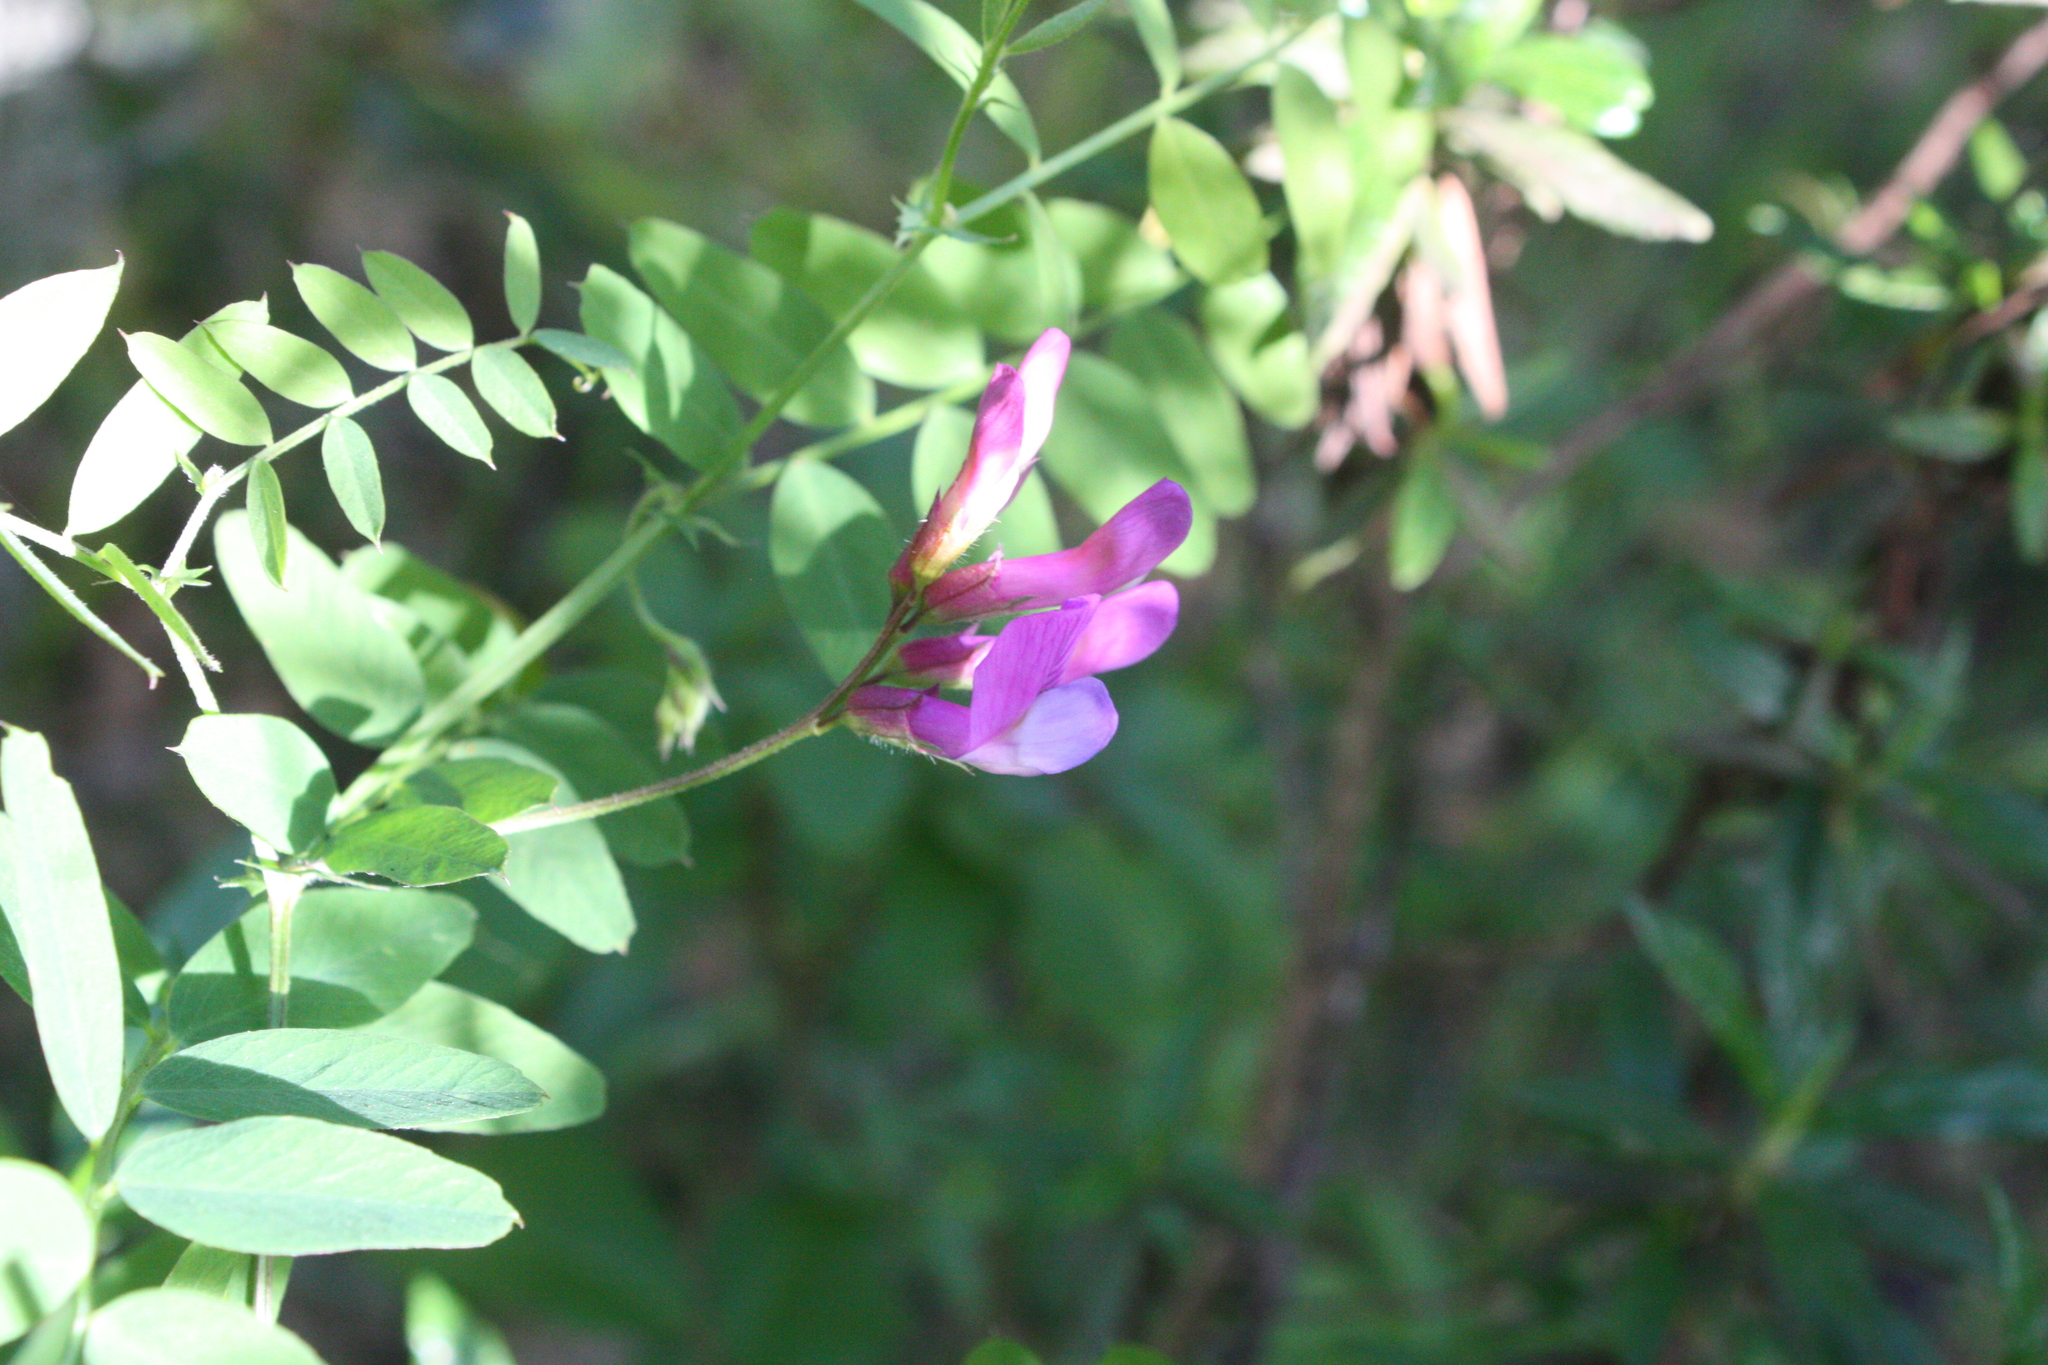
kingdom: Plantae
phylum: Tracheophyta
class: Magnoliopsida
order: Fabales
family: Fabaceae
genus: Vicia
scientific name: Vicia sativa
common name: Garden vetch
